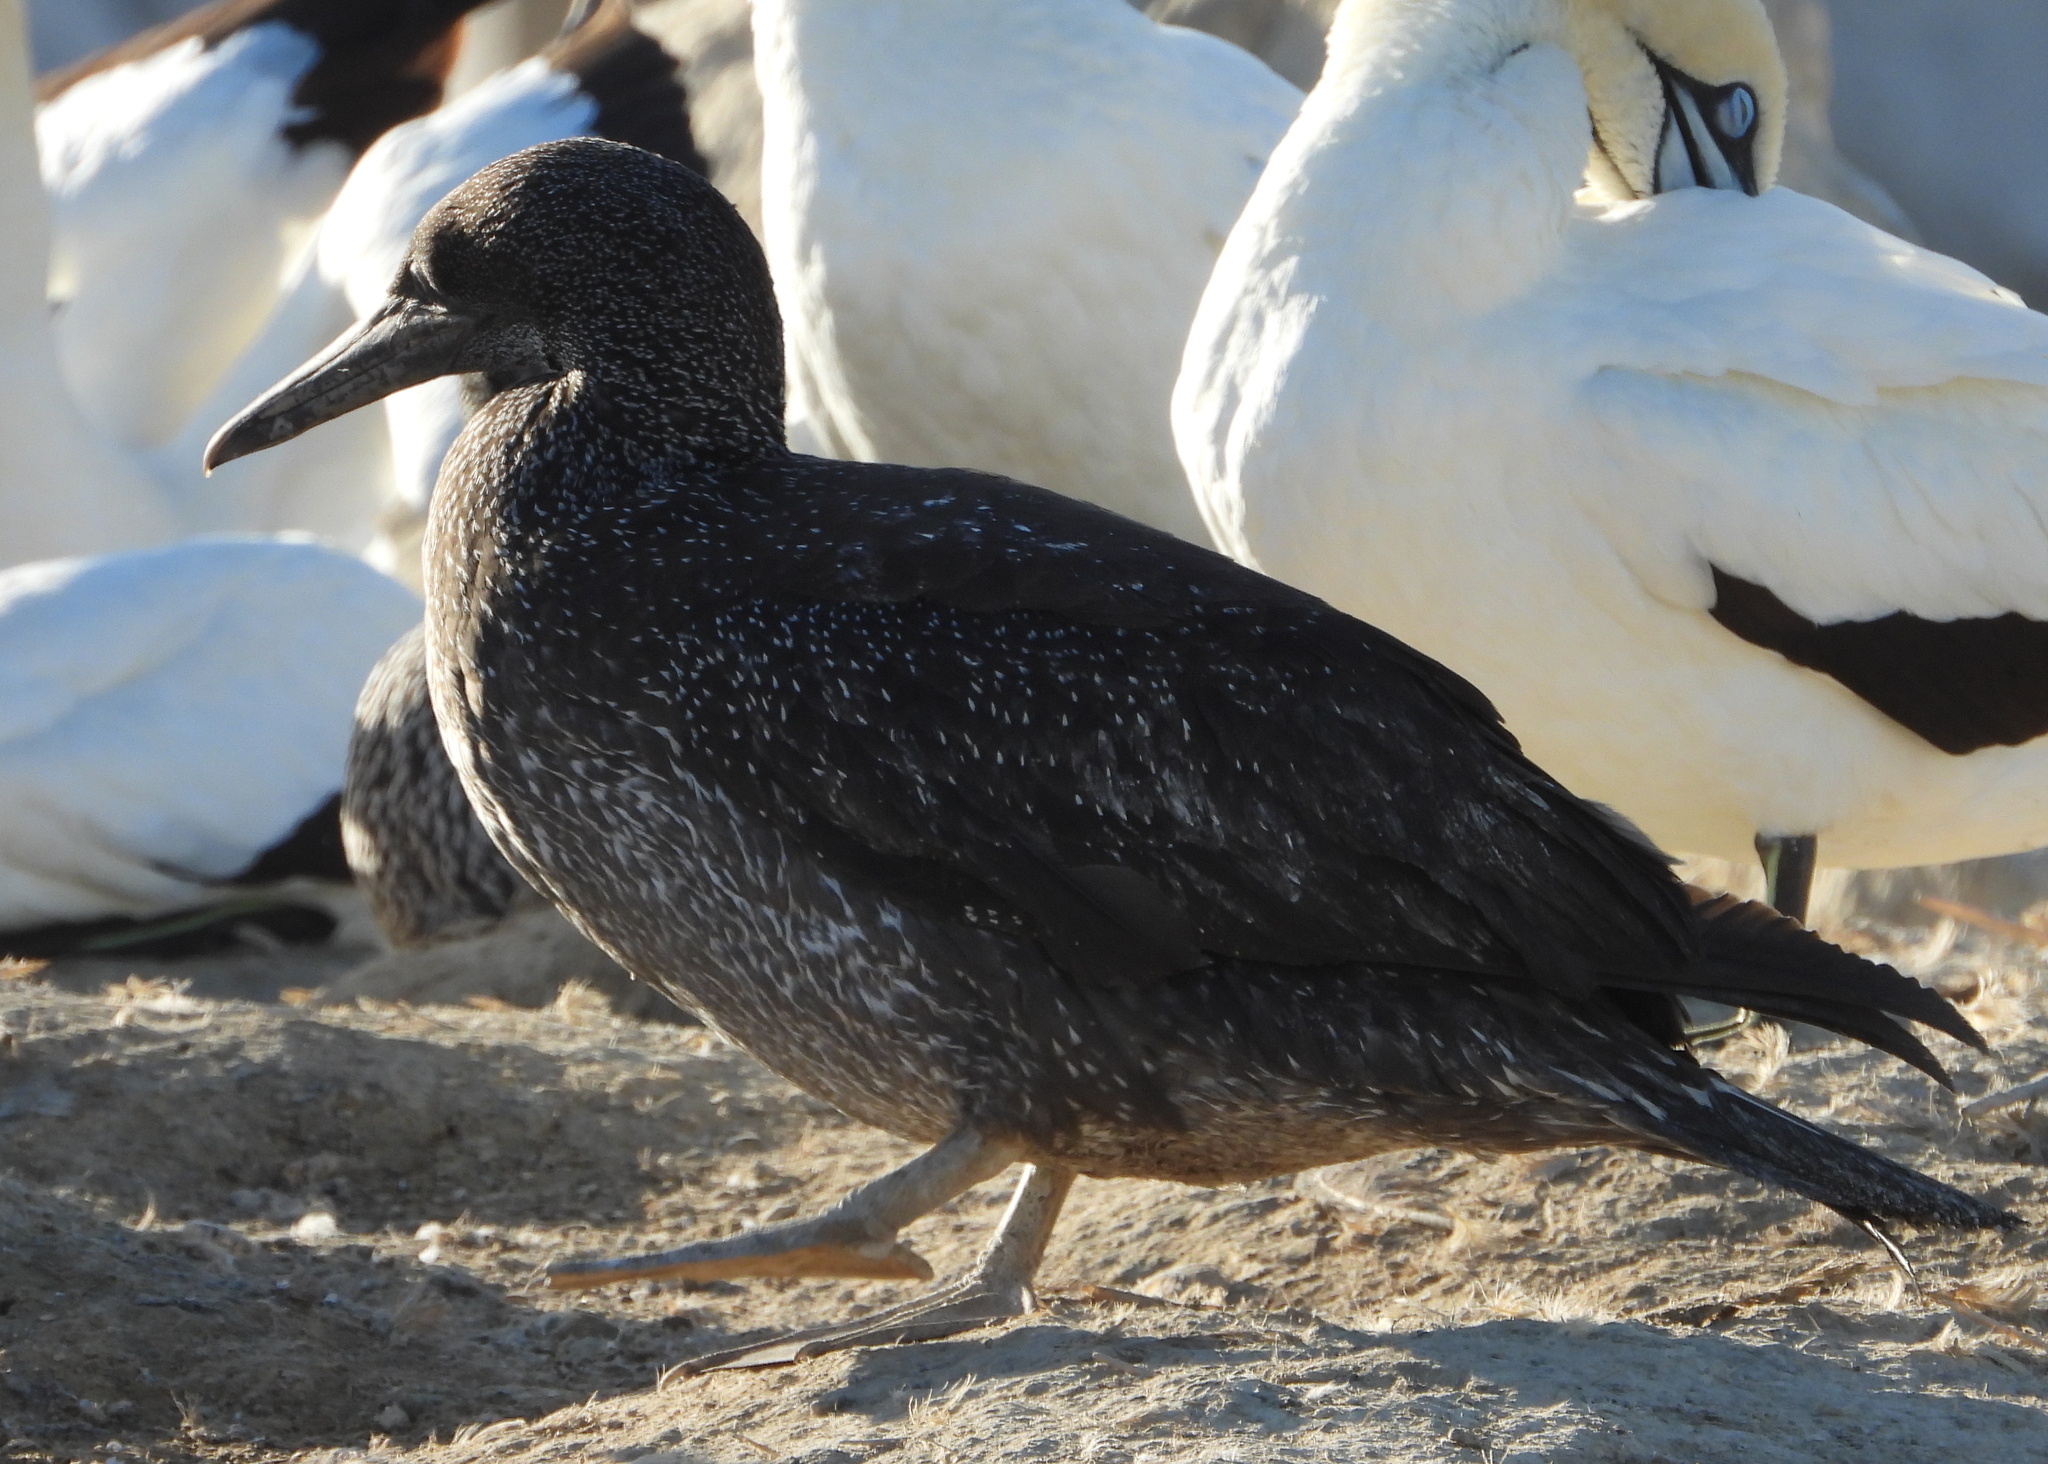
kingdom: Animalia
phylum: Chordata
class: Aves
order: Suliformes
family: Sulidae
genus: Morus
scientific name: Morus capensis
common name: Cape gannet
